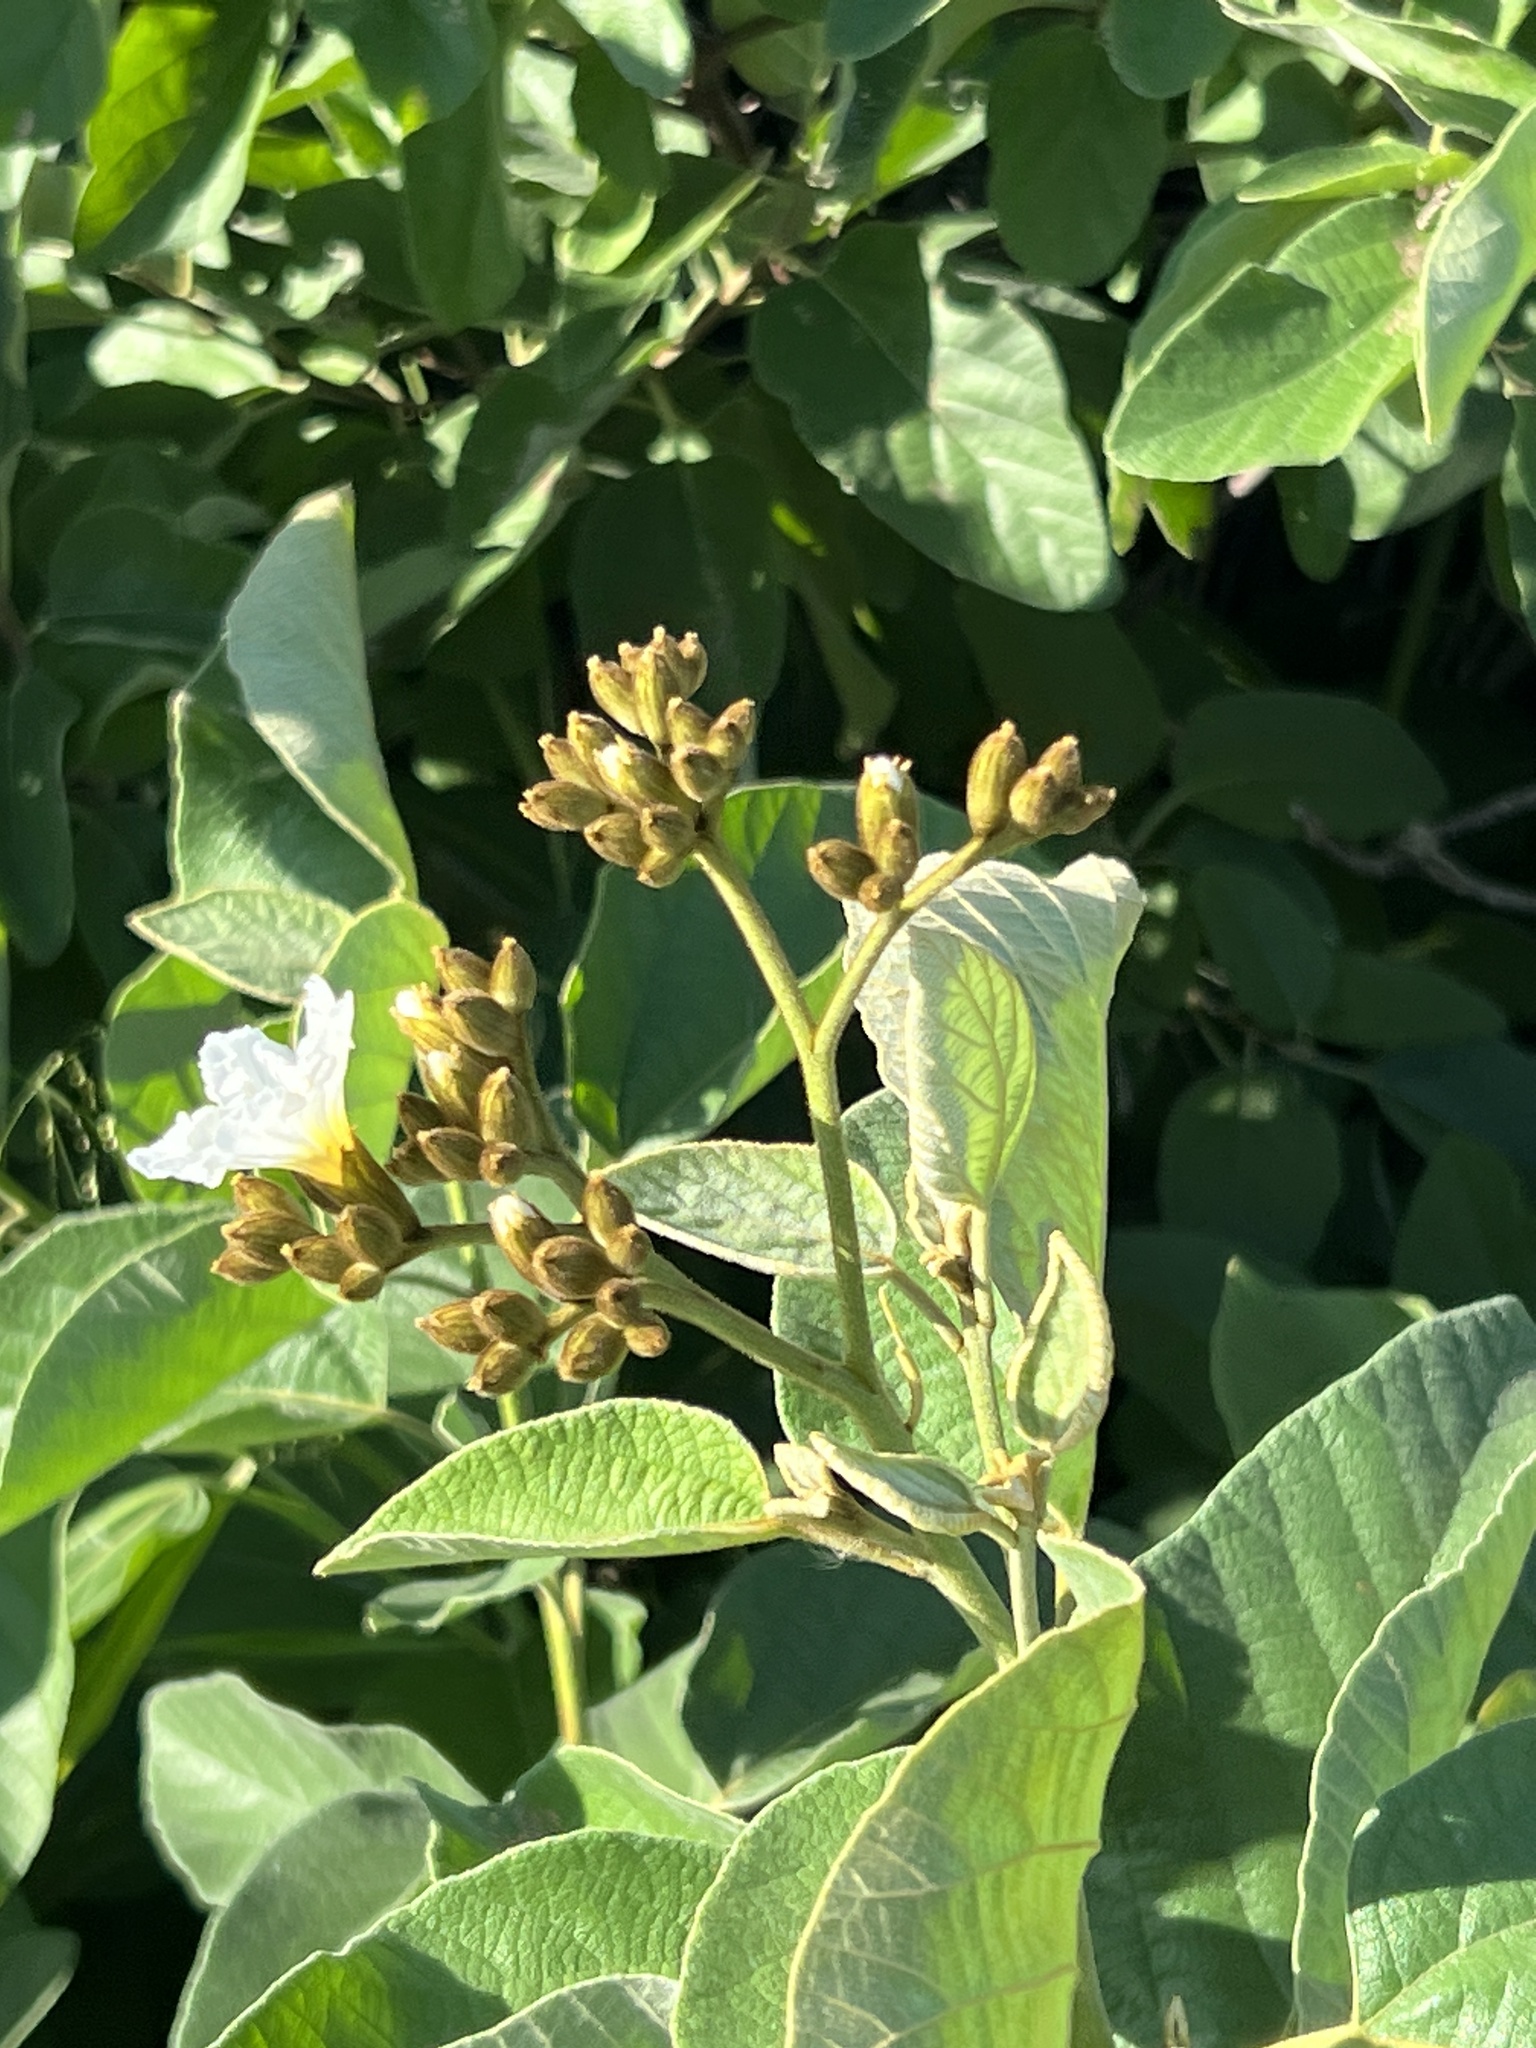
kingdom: Plantae
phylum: Tracheophyta
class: Magnoliopsida
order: Boraginales
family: Cordiaceae
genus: Cordia
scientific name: Cordia boissieri
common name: Mexican-olive
